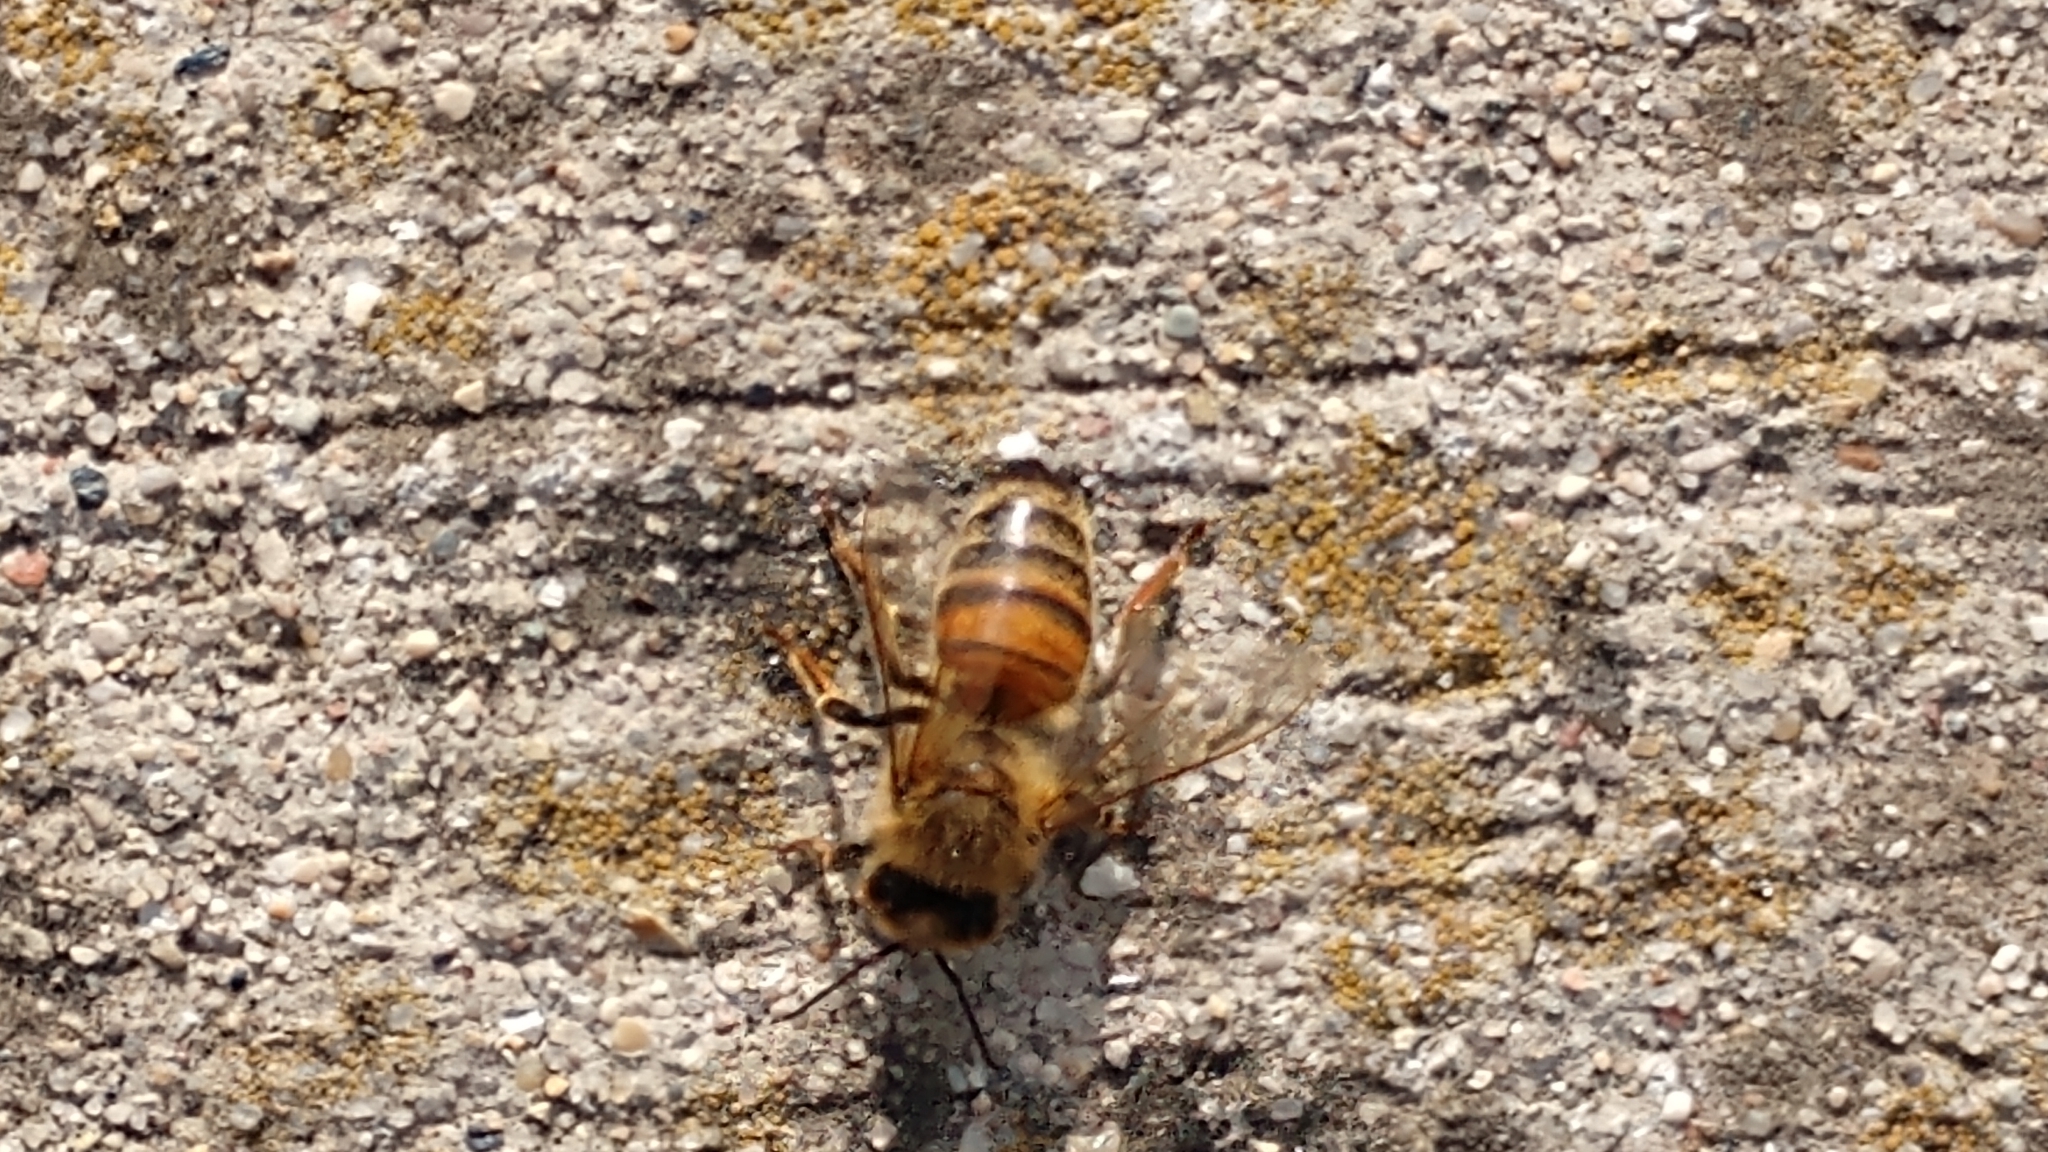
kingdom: Animalia
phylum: Arthropoda
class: Insecta
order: Hymenoptera
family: Apidae
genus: Apis
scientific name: Apis mellifera
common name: Honey bee
